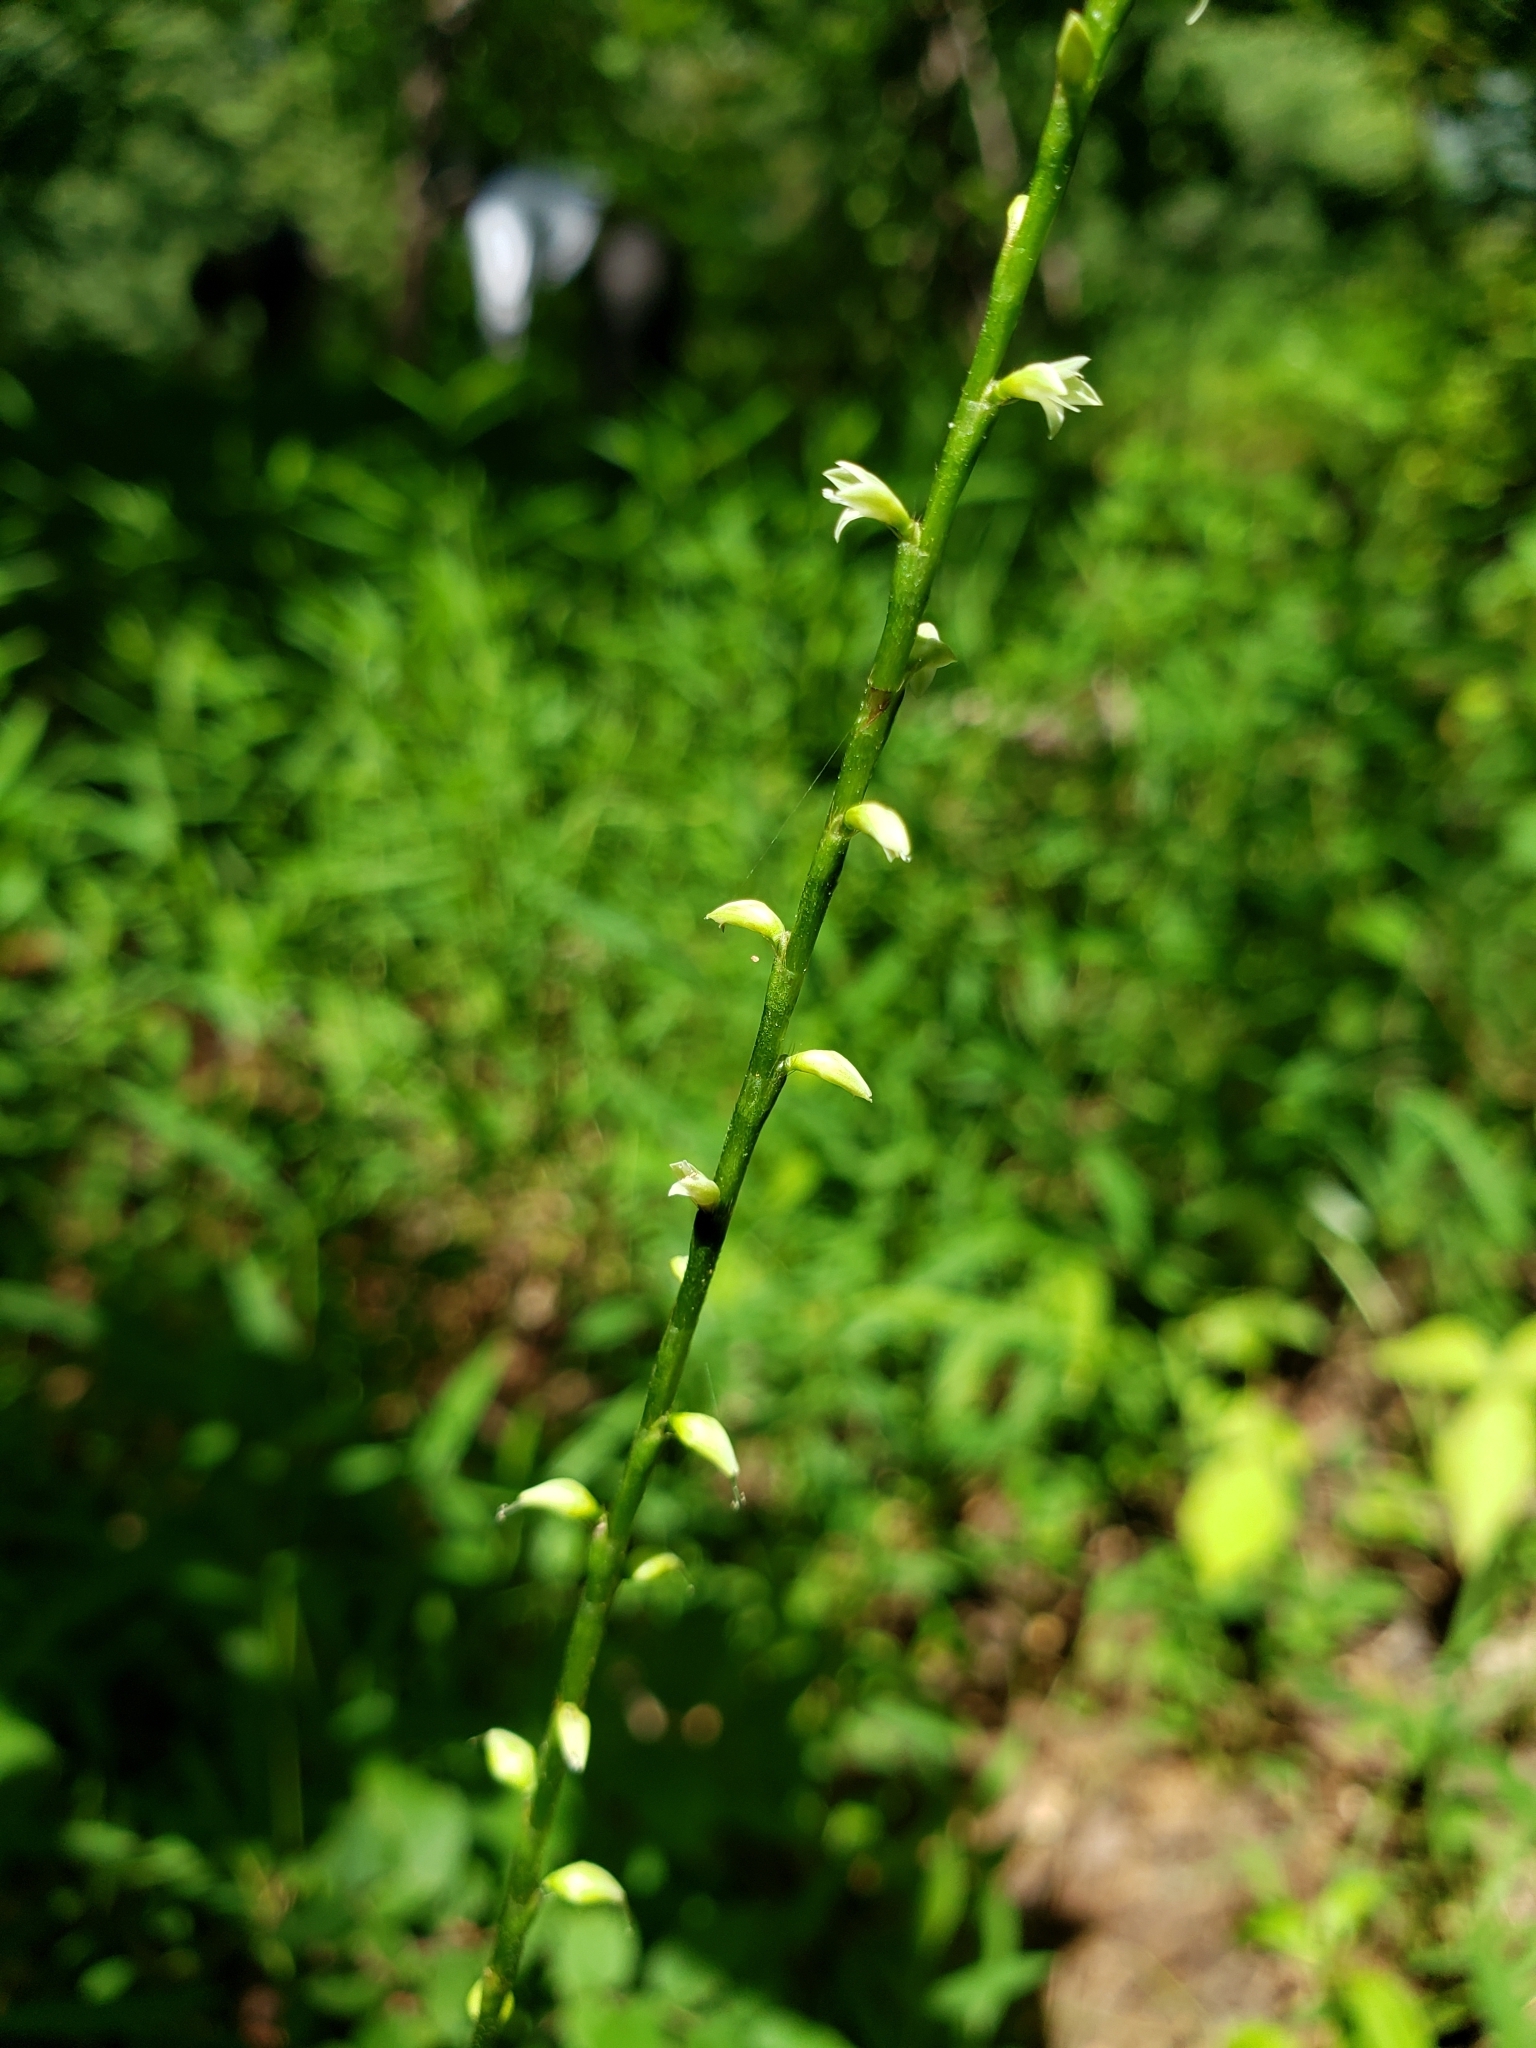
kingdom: Plantae
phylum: Tracheophyta
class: Magnoliopsida
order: Caryophyllales
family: Polygonaceae
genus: Persicaria
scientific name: Persicaria virginiana
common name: Jumpseed
